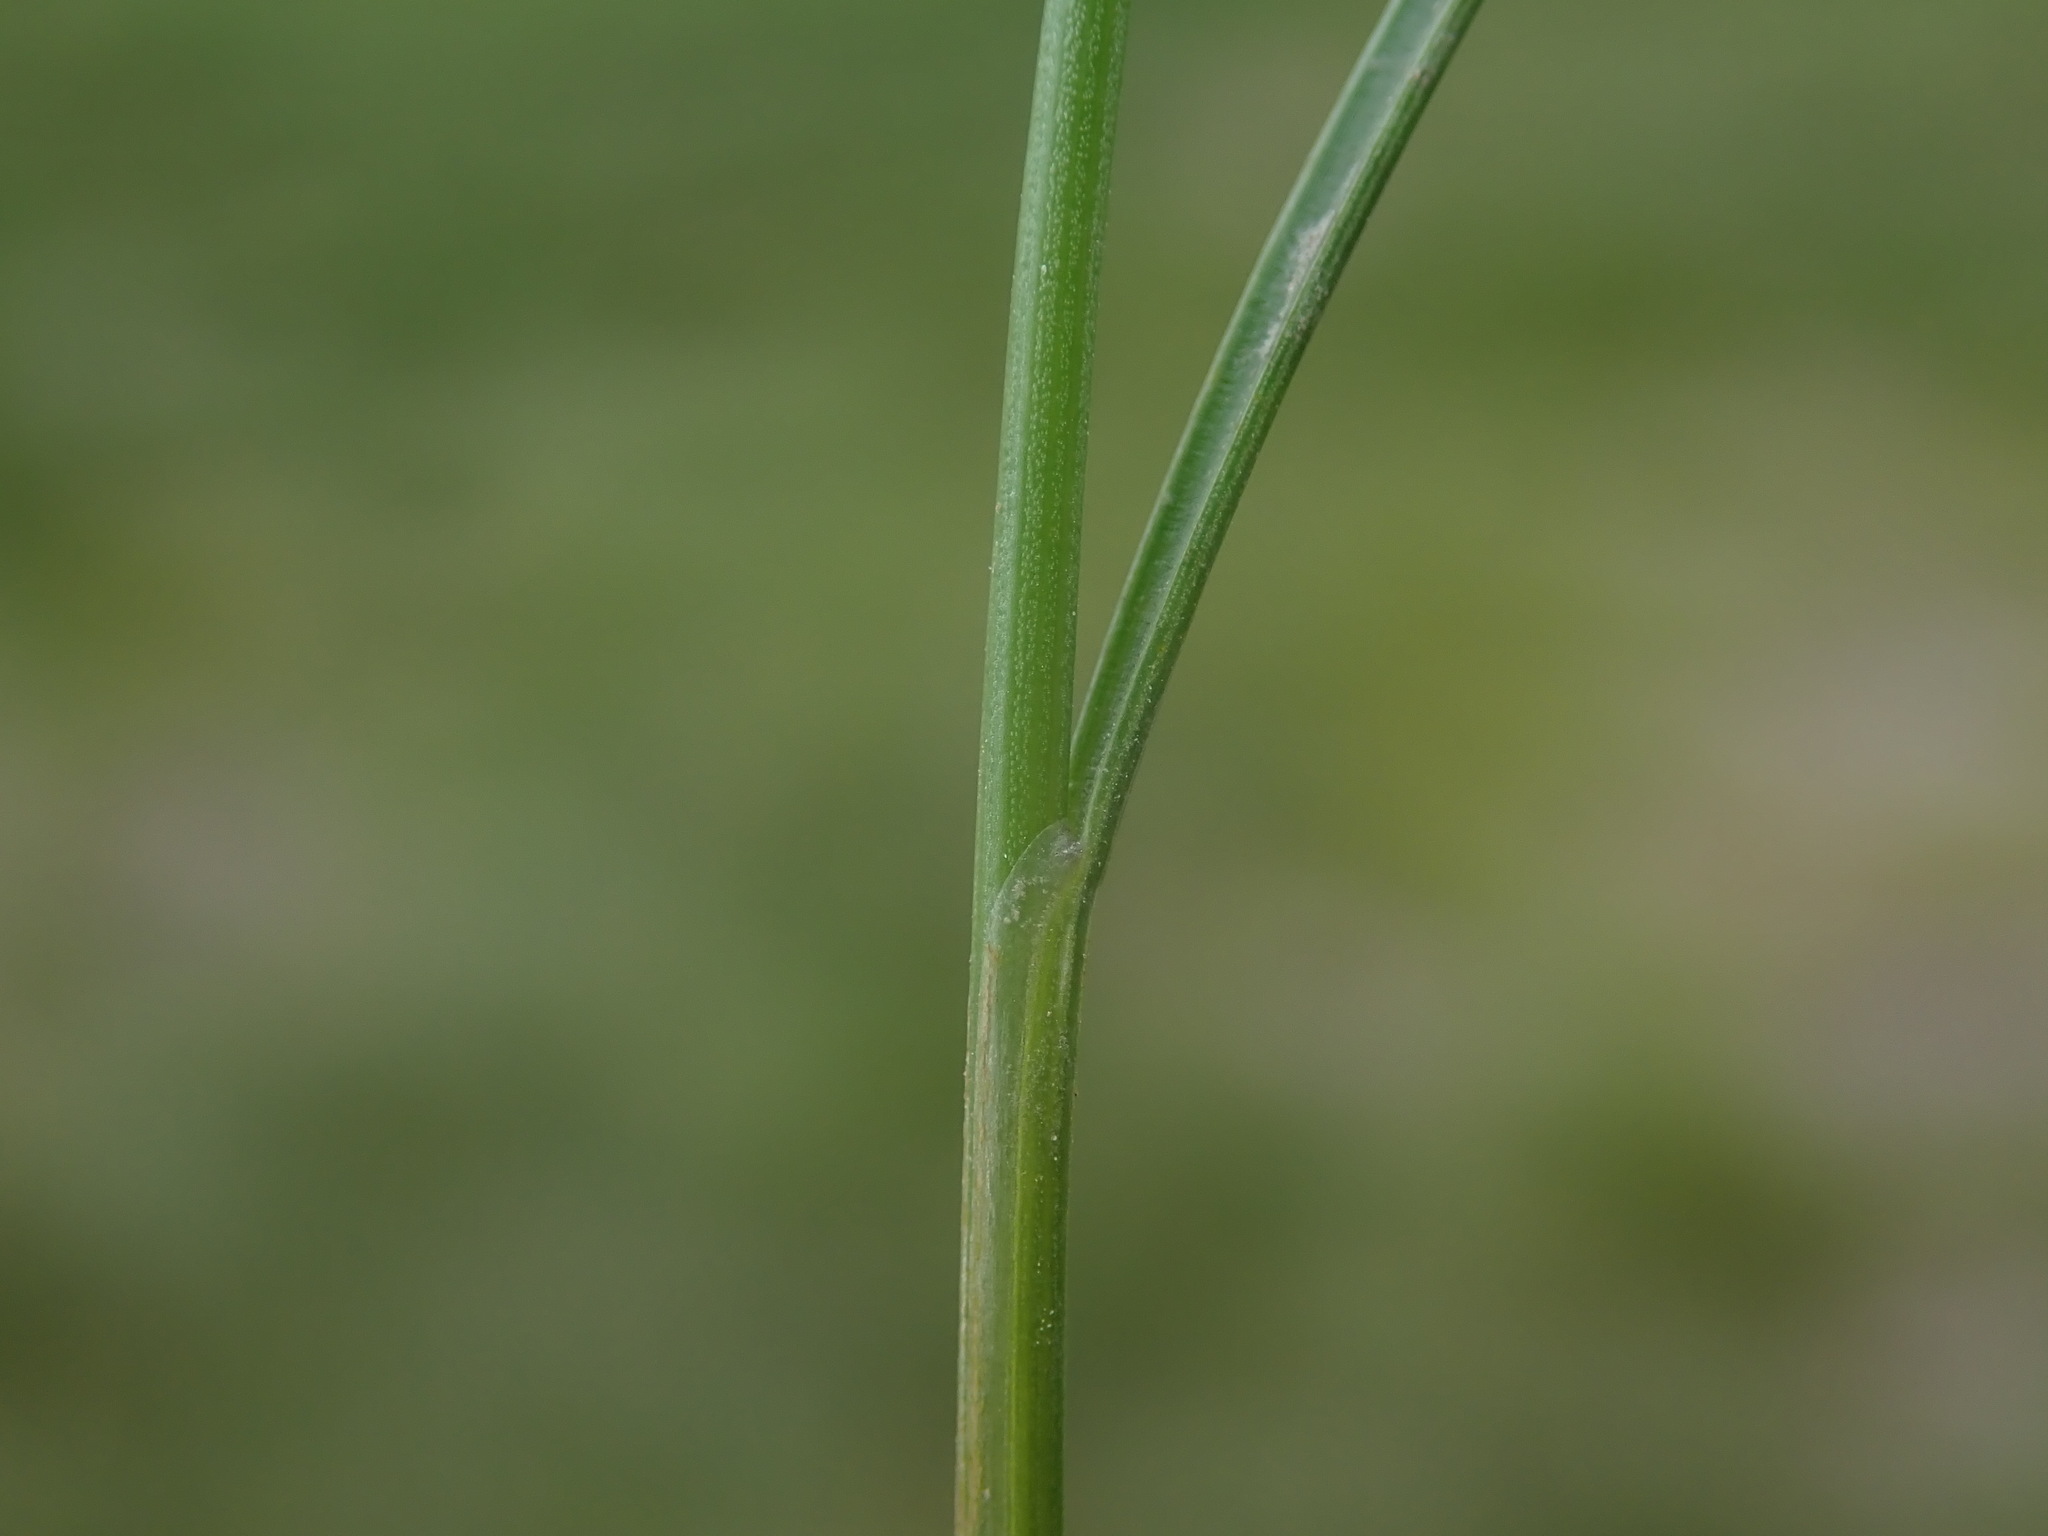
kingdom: Plantae
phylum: Tracheophyta
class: Liliopsida
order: Poales
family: Juncaceae
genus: Juncus
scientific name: Juncus gerardi
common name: Saltmarsh rush
